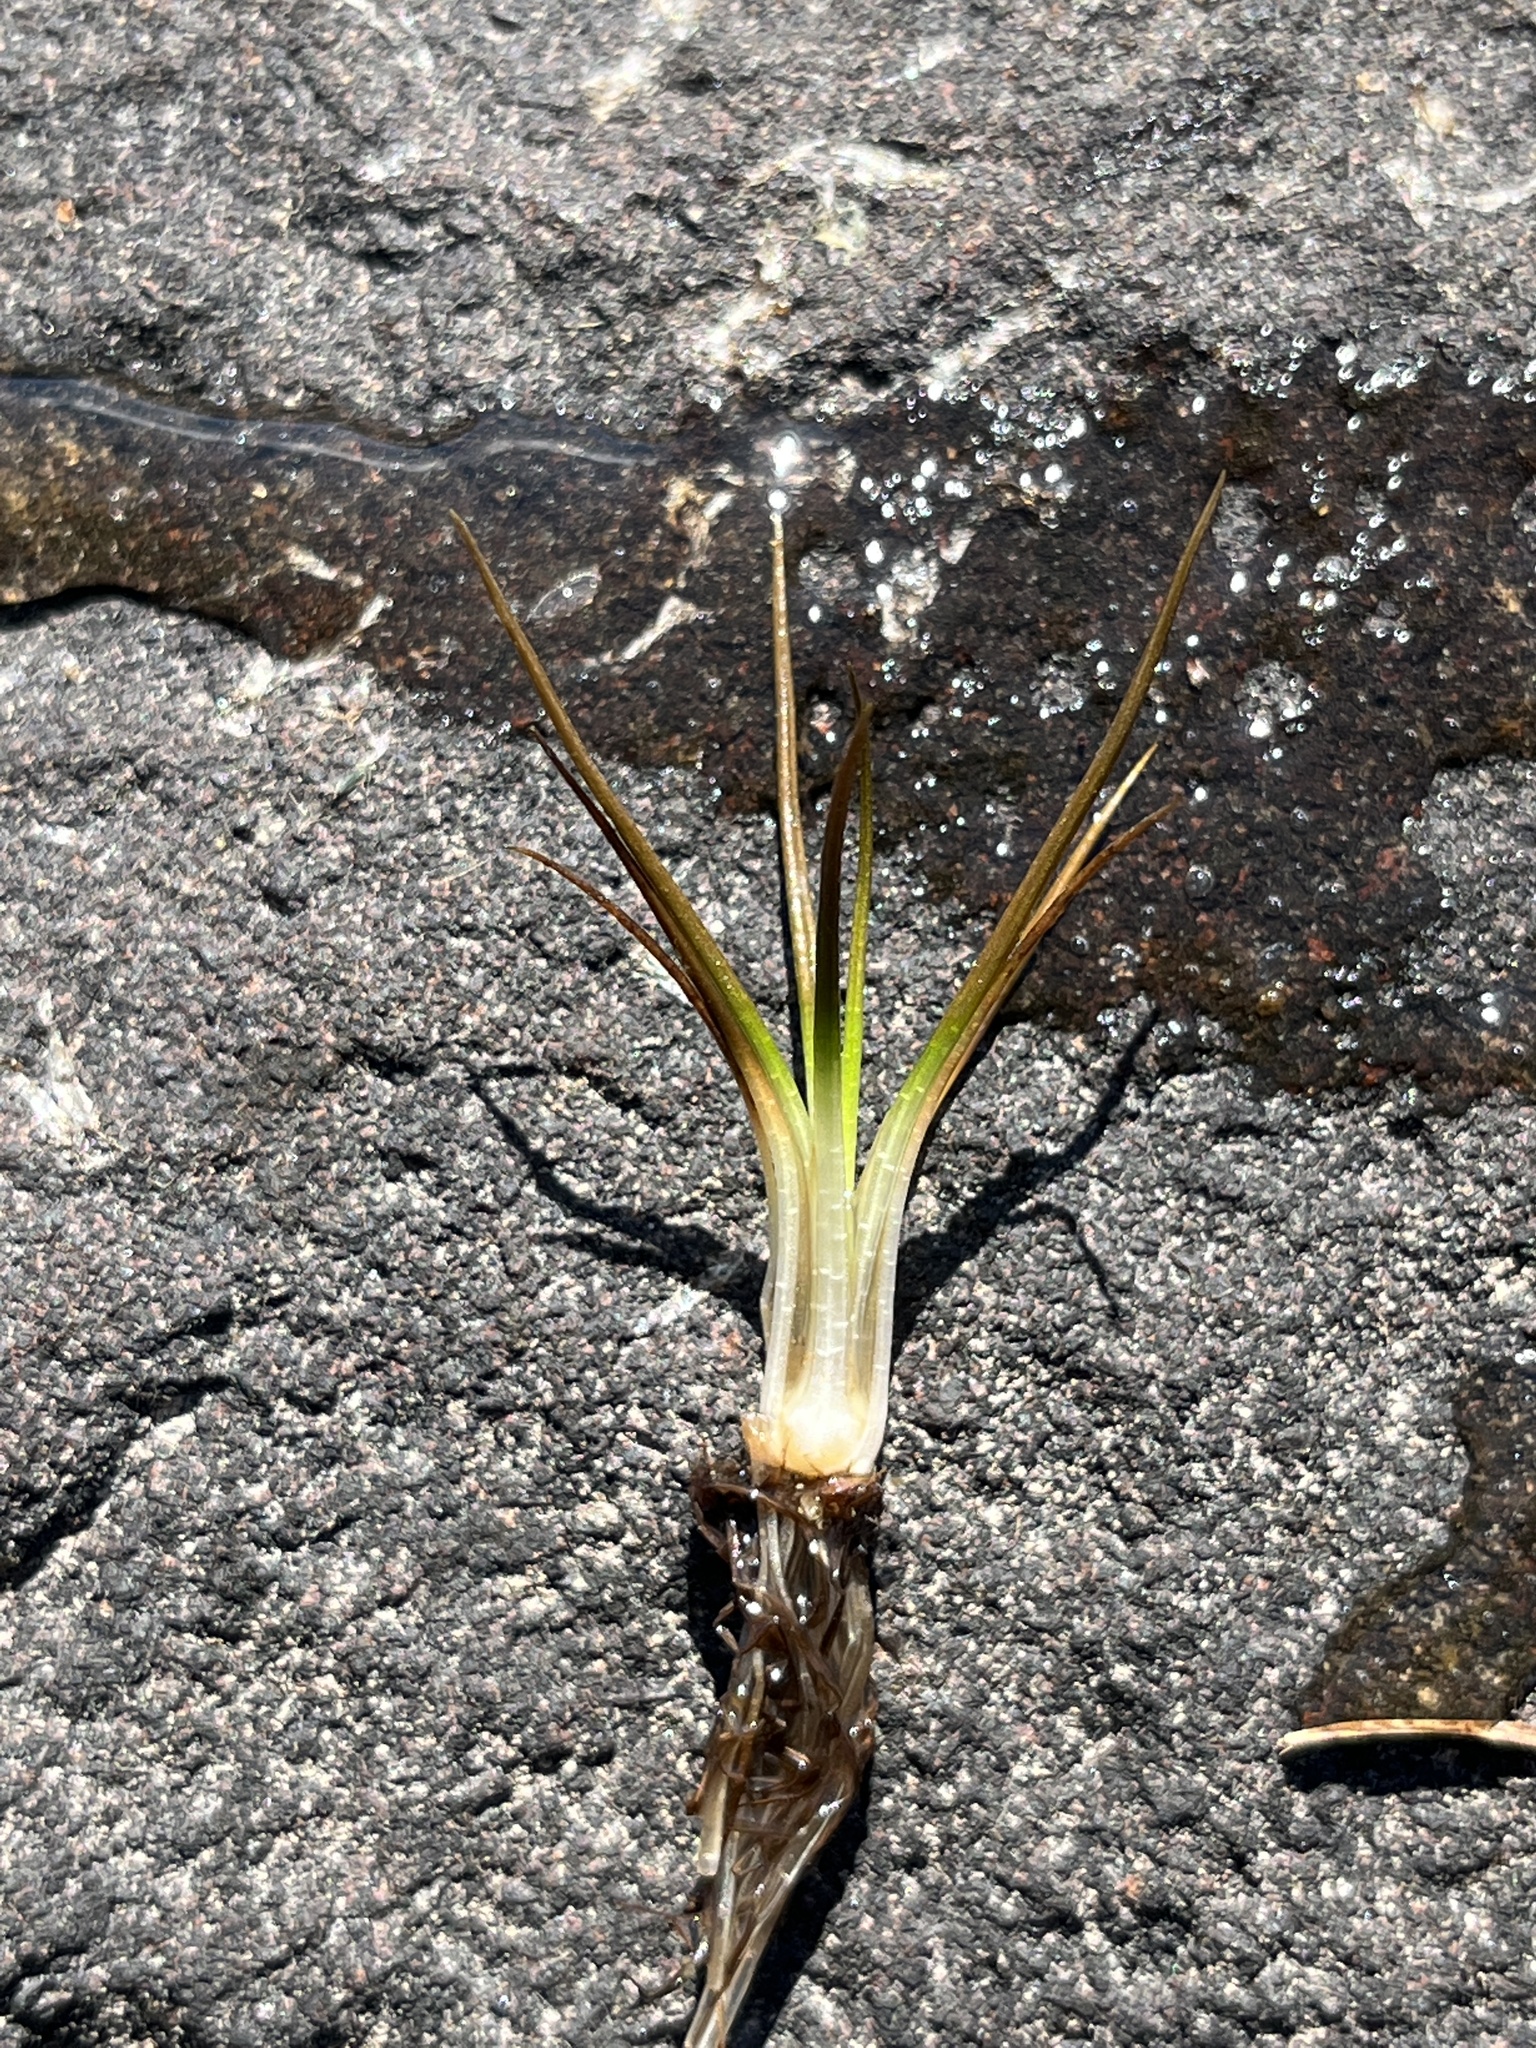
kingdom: Plantae
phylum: Tracheophyta
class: Lycopodiopsida
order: Isoetales
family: Isoetaceae
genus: Isoetes
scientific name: Isoetes echinospora
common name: Spring quillwort
